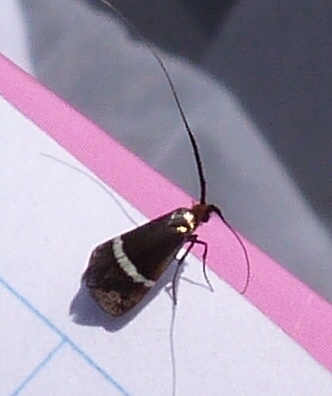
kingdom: Animalia
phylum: Arthropoda
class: Insecta
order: Lepidoptera
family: Adelidae
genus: Adela
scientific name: Adela australis
